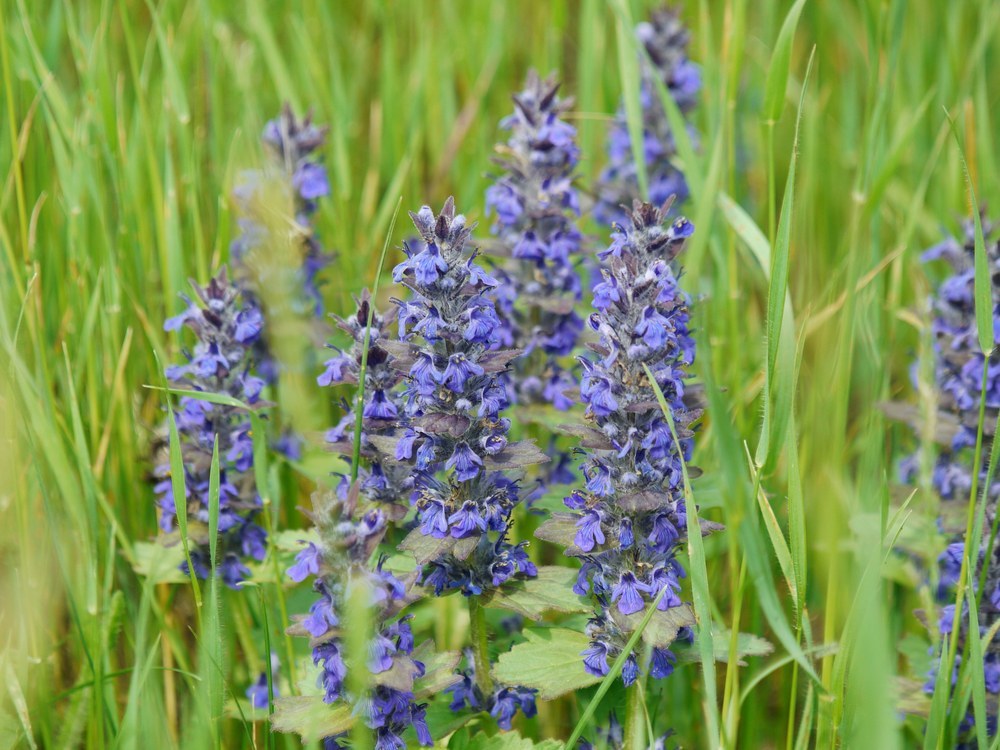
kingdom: Plantae
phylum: Tracheophyta
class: Magnoliopsida
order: Lamiales
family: Lamiaceae
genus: Ajuga
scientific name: Ajuga genevensis
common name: Blue bugle
